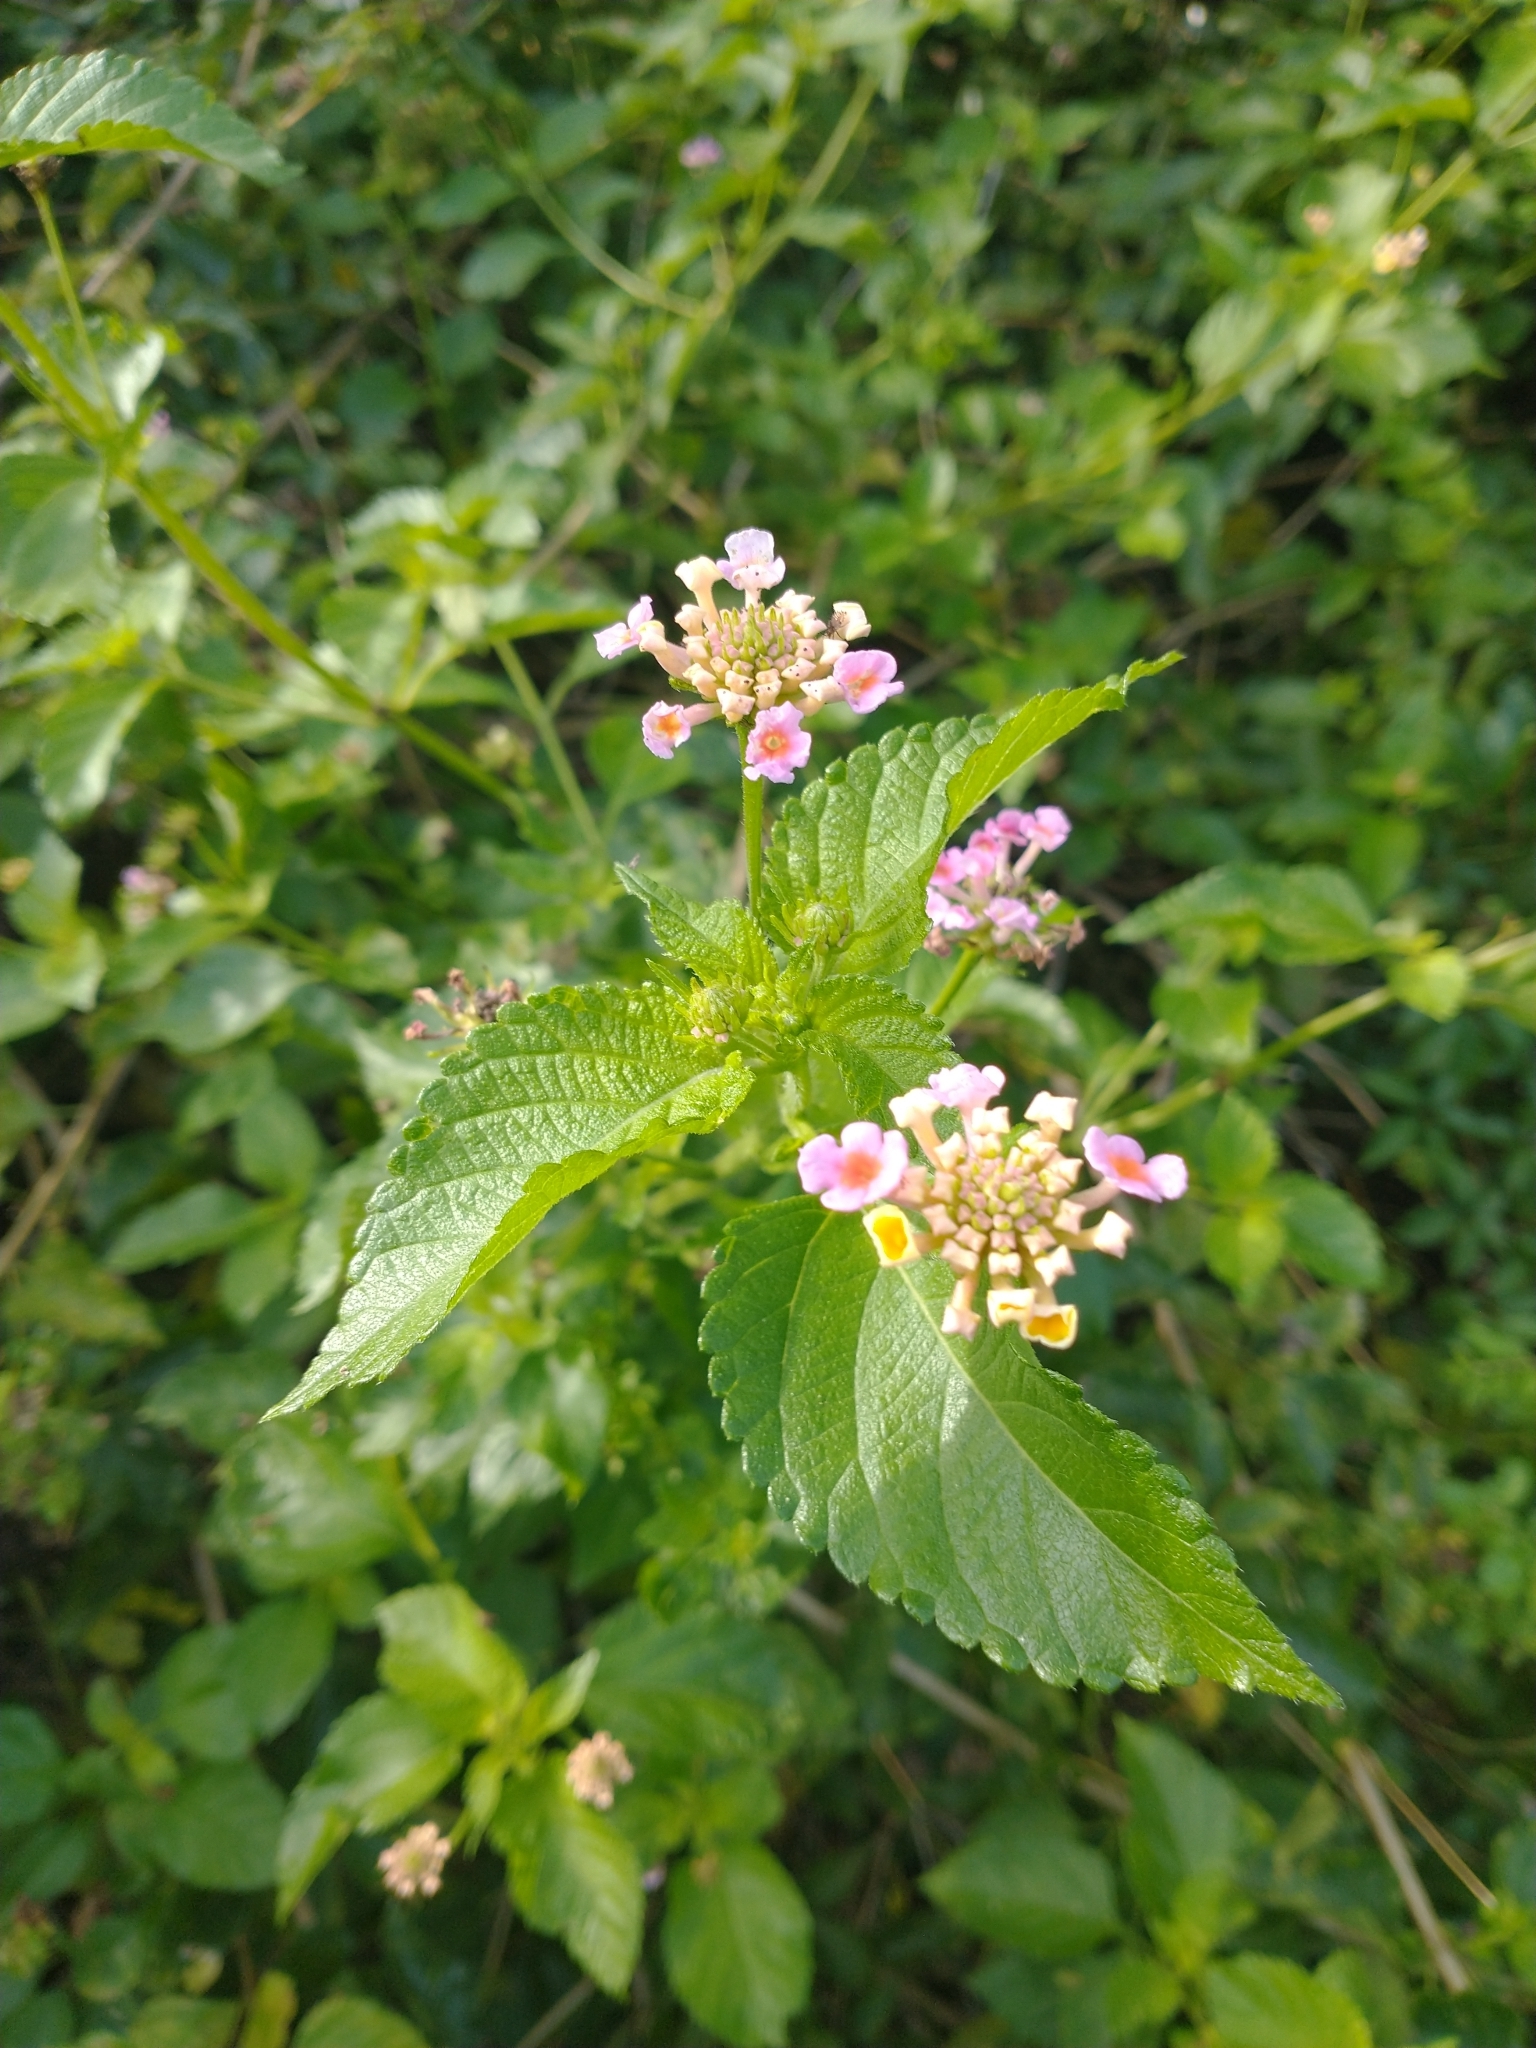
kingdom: Plantae
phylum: Tracheophyta
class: Magnoliopsida
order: Lamiales
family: Verbenaceae
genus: Lantana
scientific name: Lantana strigocamara
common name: Lantana
